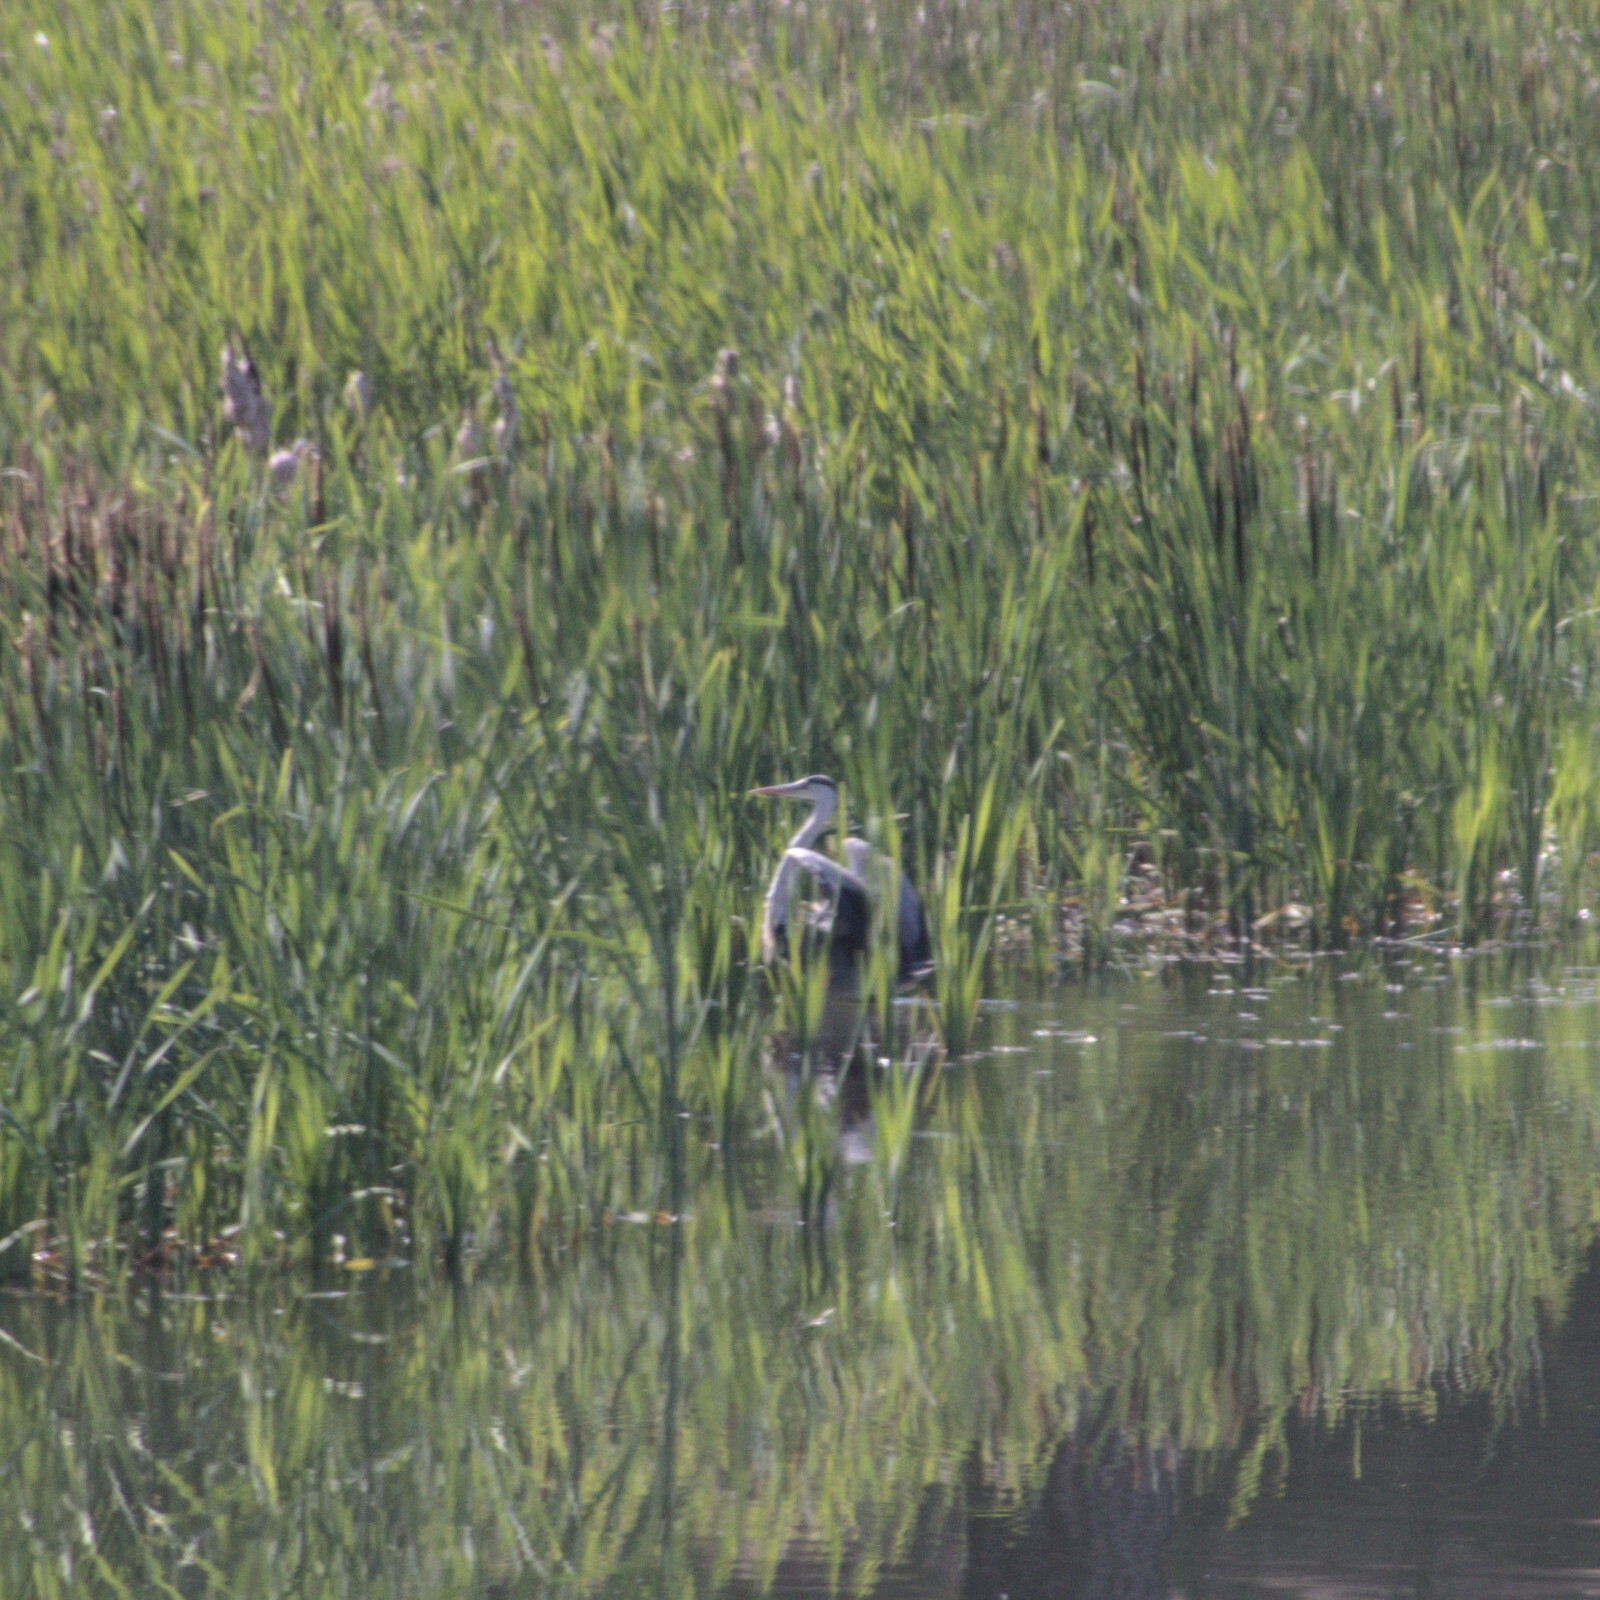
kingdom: Animalia
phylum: Chordata
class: Aves
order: Pelecaniformes
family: Ardeidae
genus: Ardea
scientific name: Ardea cinerea
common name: Grey heron
